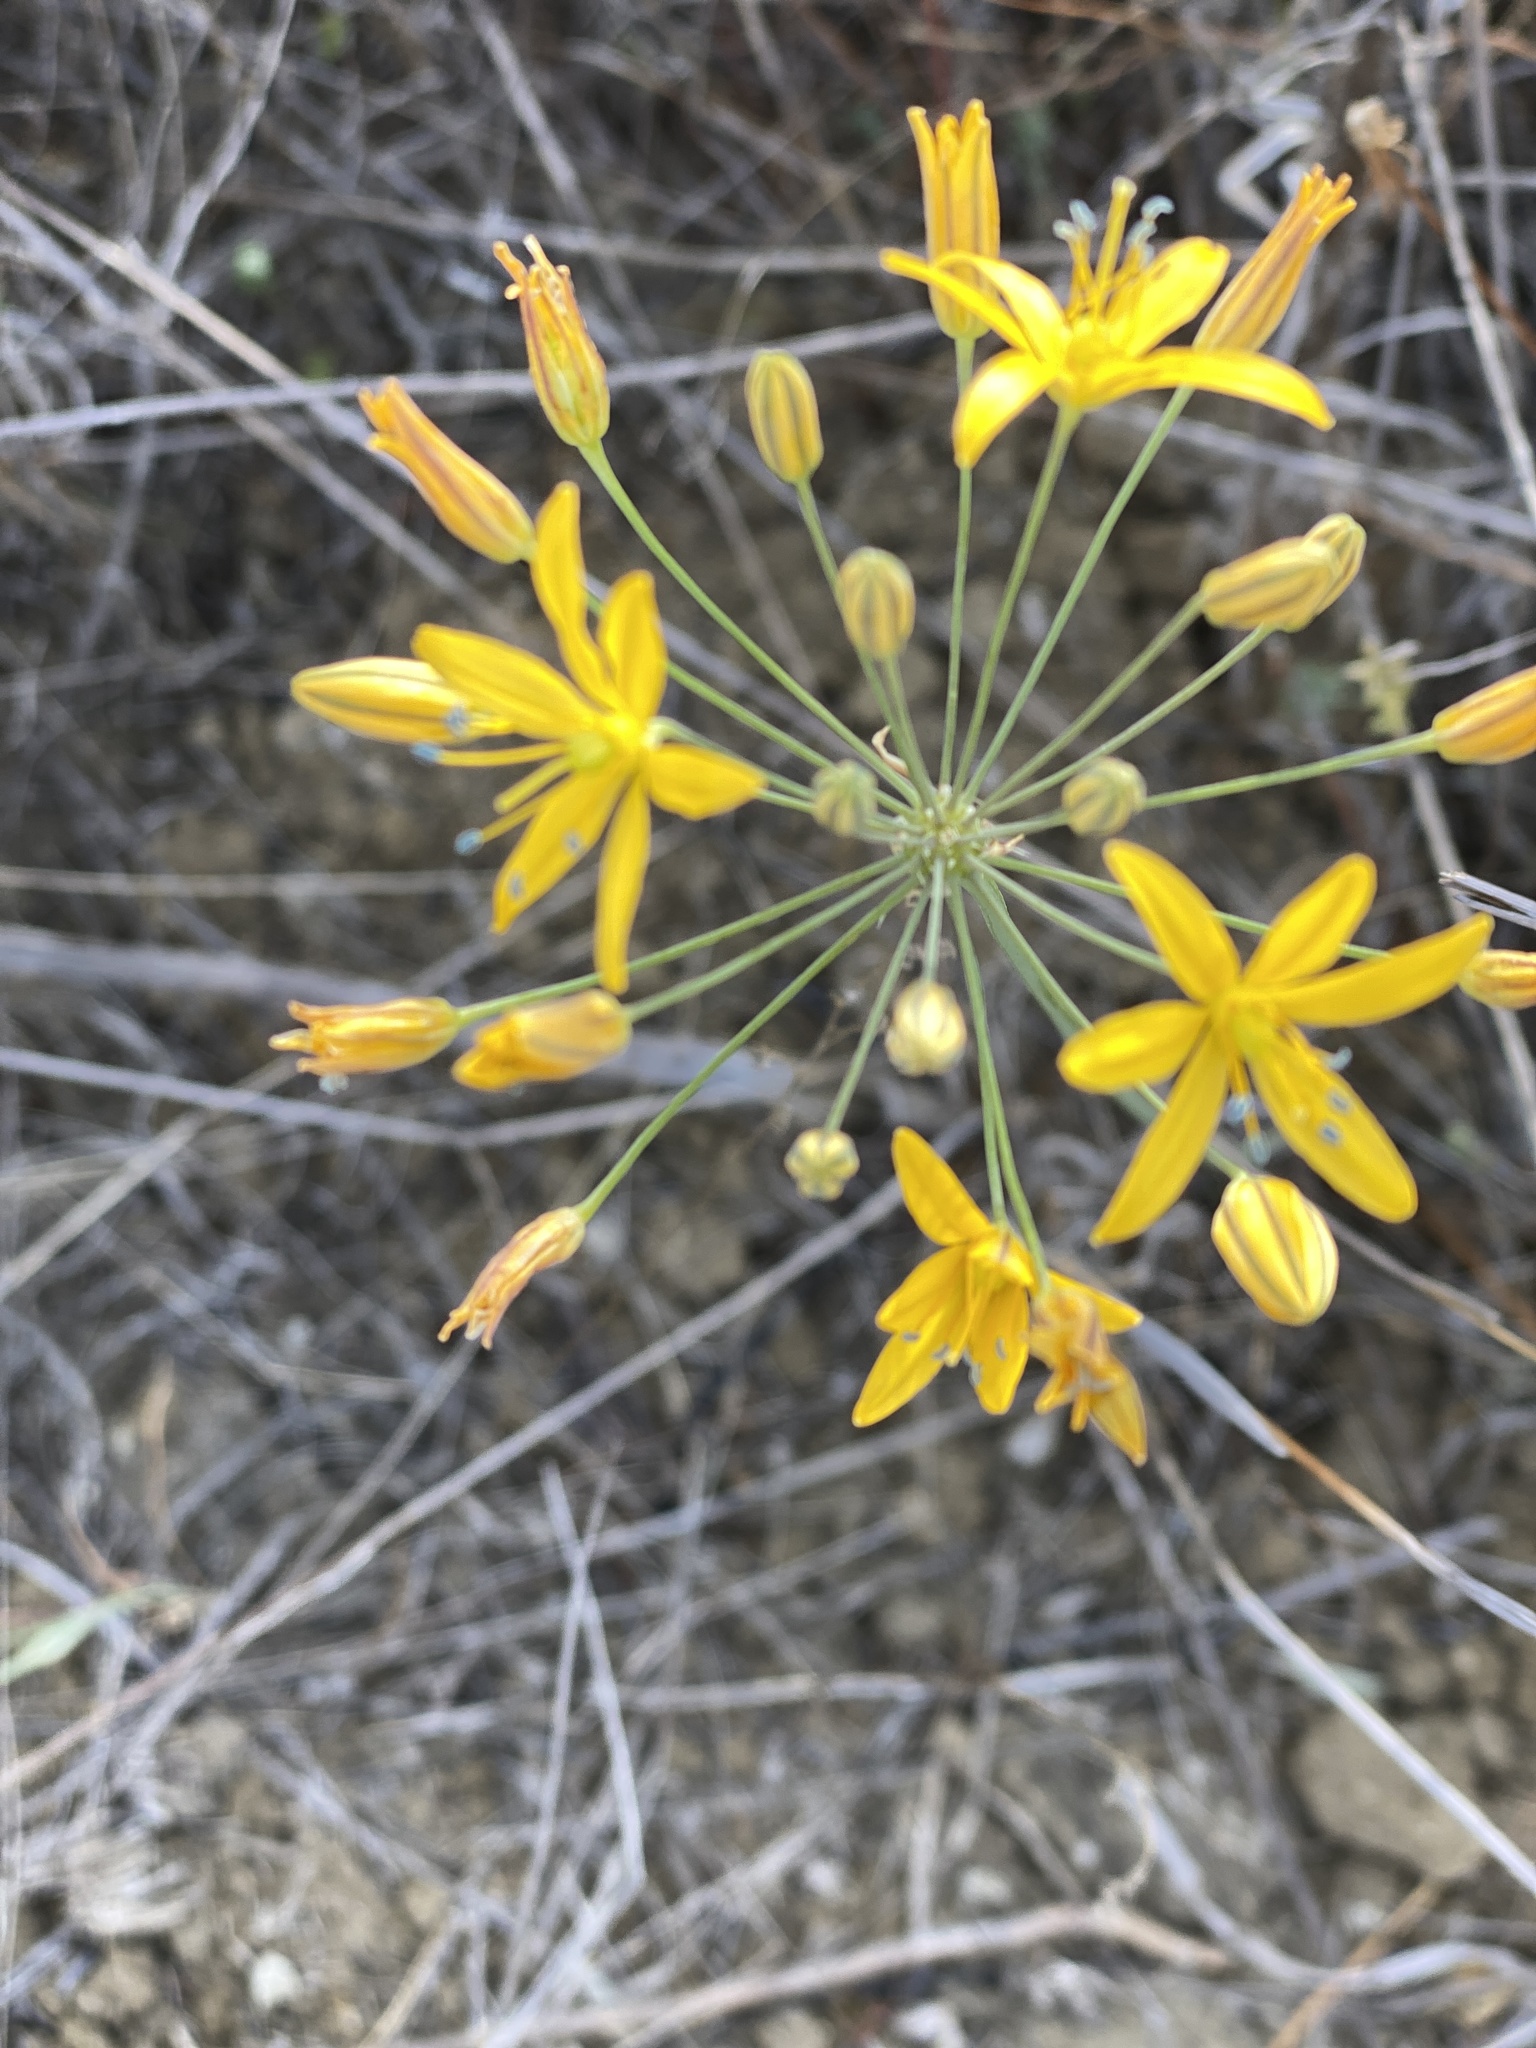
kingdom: Plantae
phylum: Tracheophyta
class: Liliopsida
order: Asparagales
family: Asparagaceae
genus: Bloomeria
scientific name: Bloomeria crocea
